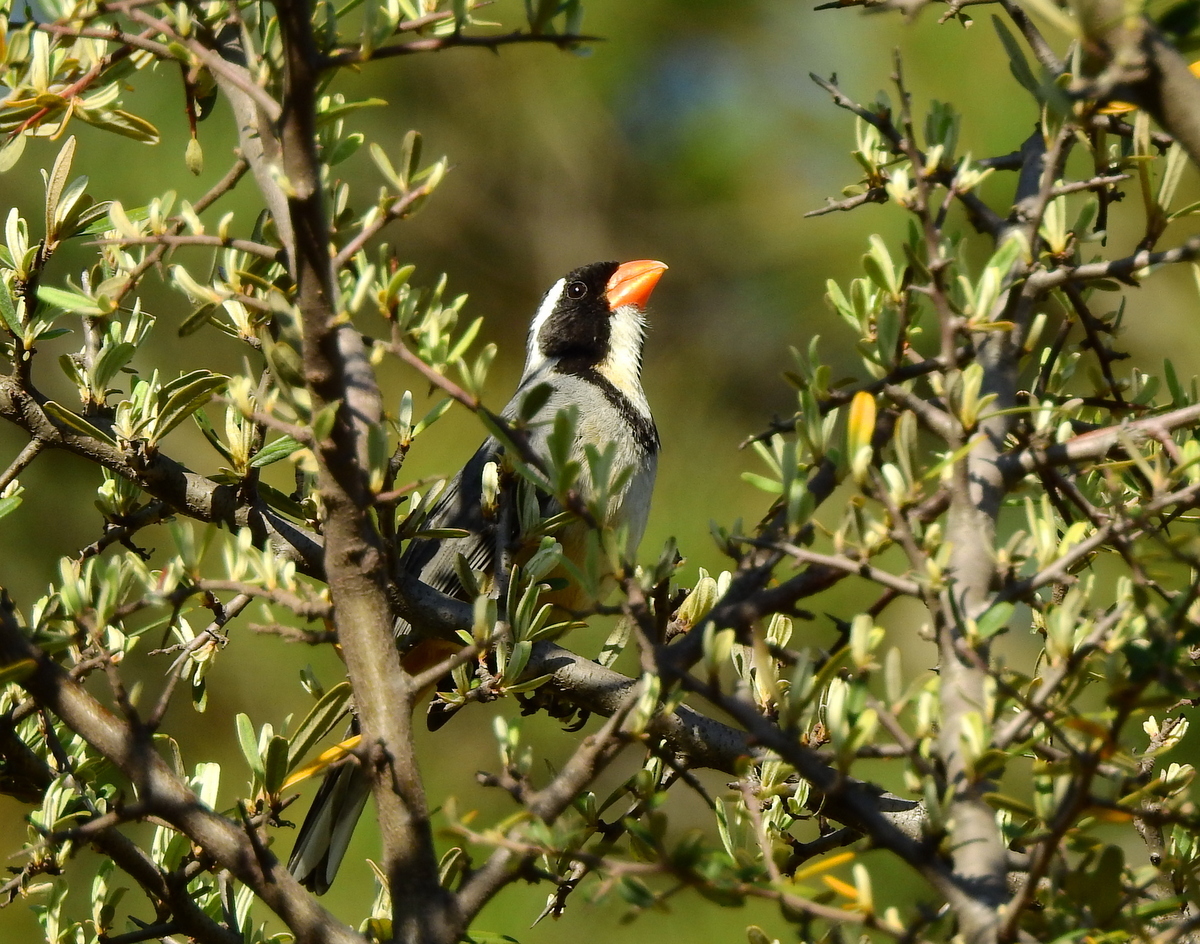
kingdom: Animalia
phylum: Chordata
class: Aves
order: Passeriformes
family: Thraupidae
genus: Saltator
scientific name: Saltator aurantiirostris
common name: Golden-billed saltator
